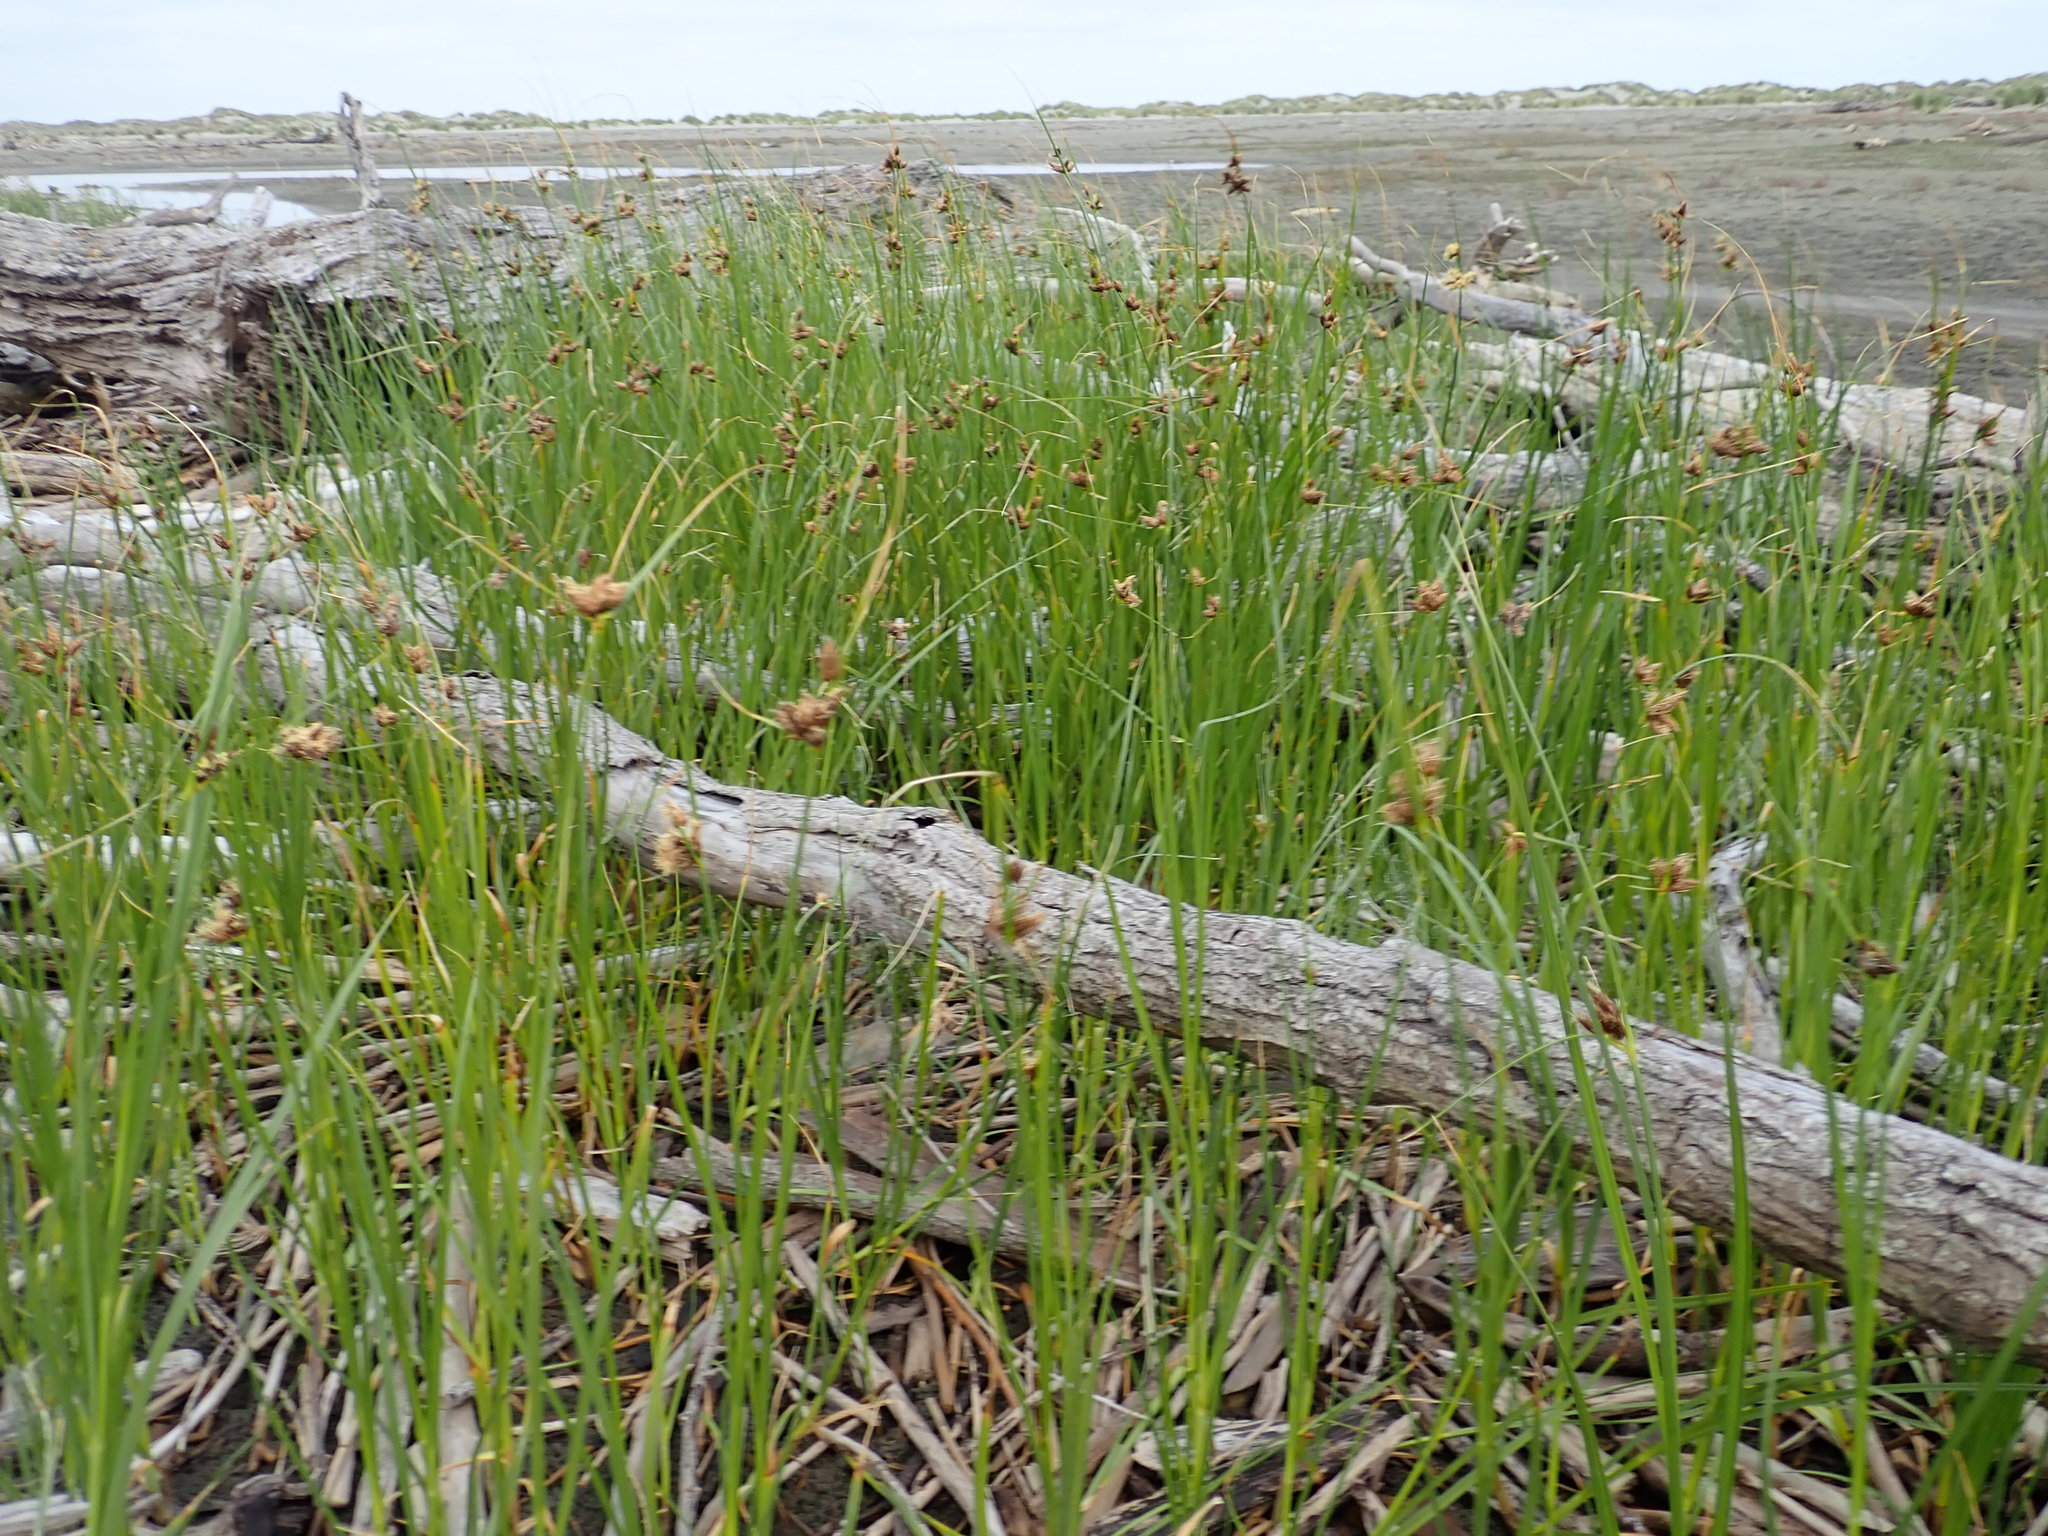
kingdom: Plantae
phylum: Tracheophyta
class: Liliopsida
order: Poales
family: Cyperaceae
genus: Bolboschoenus
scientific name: Bolboschoenus caldwellii
